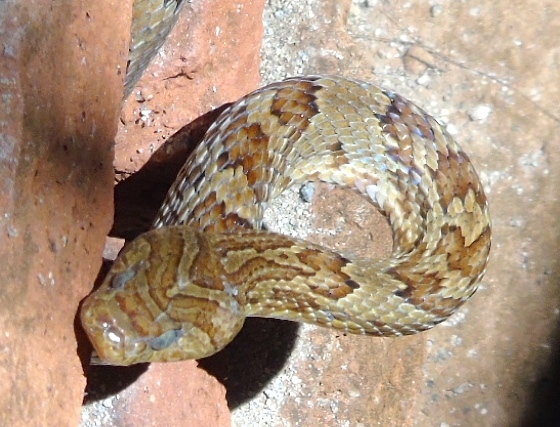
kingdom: Animalia
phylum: Chordata
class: Squamata
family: Colubridae
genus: Trimorphodon
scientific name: Trimorphodon paucimaculatus
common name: Sinaloan lyresnake
